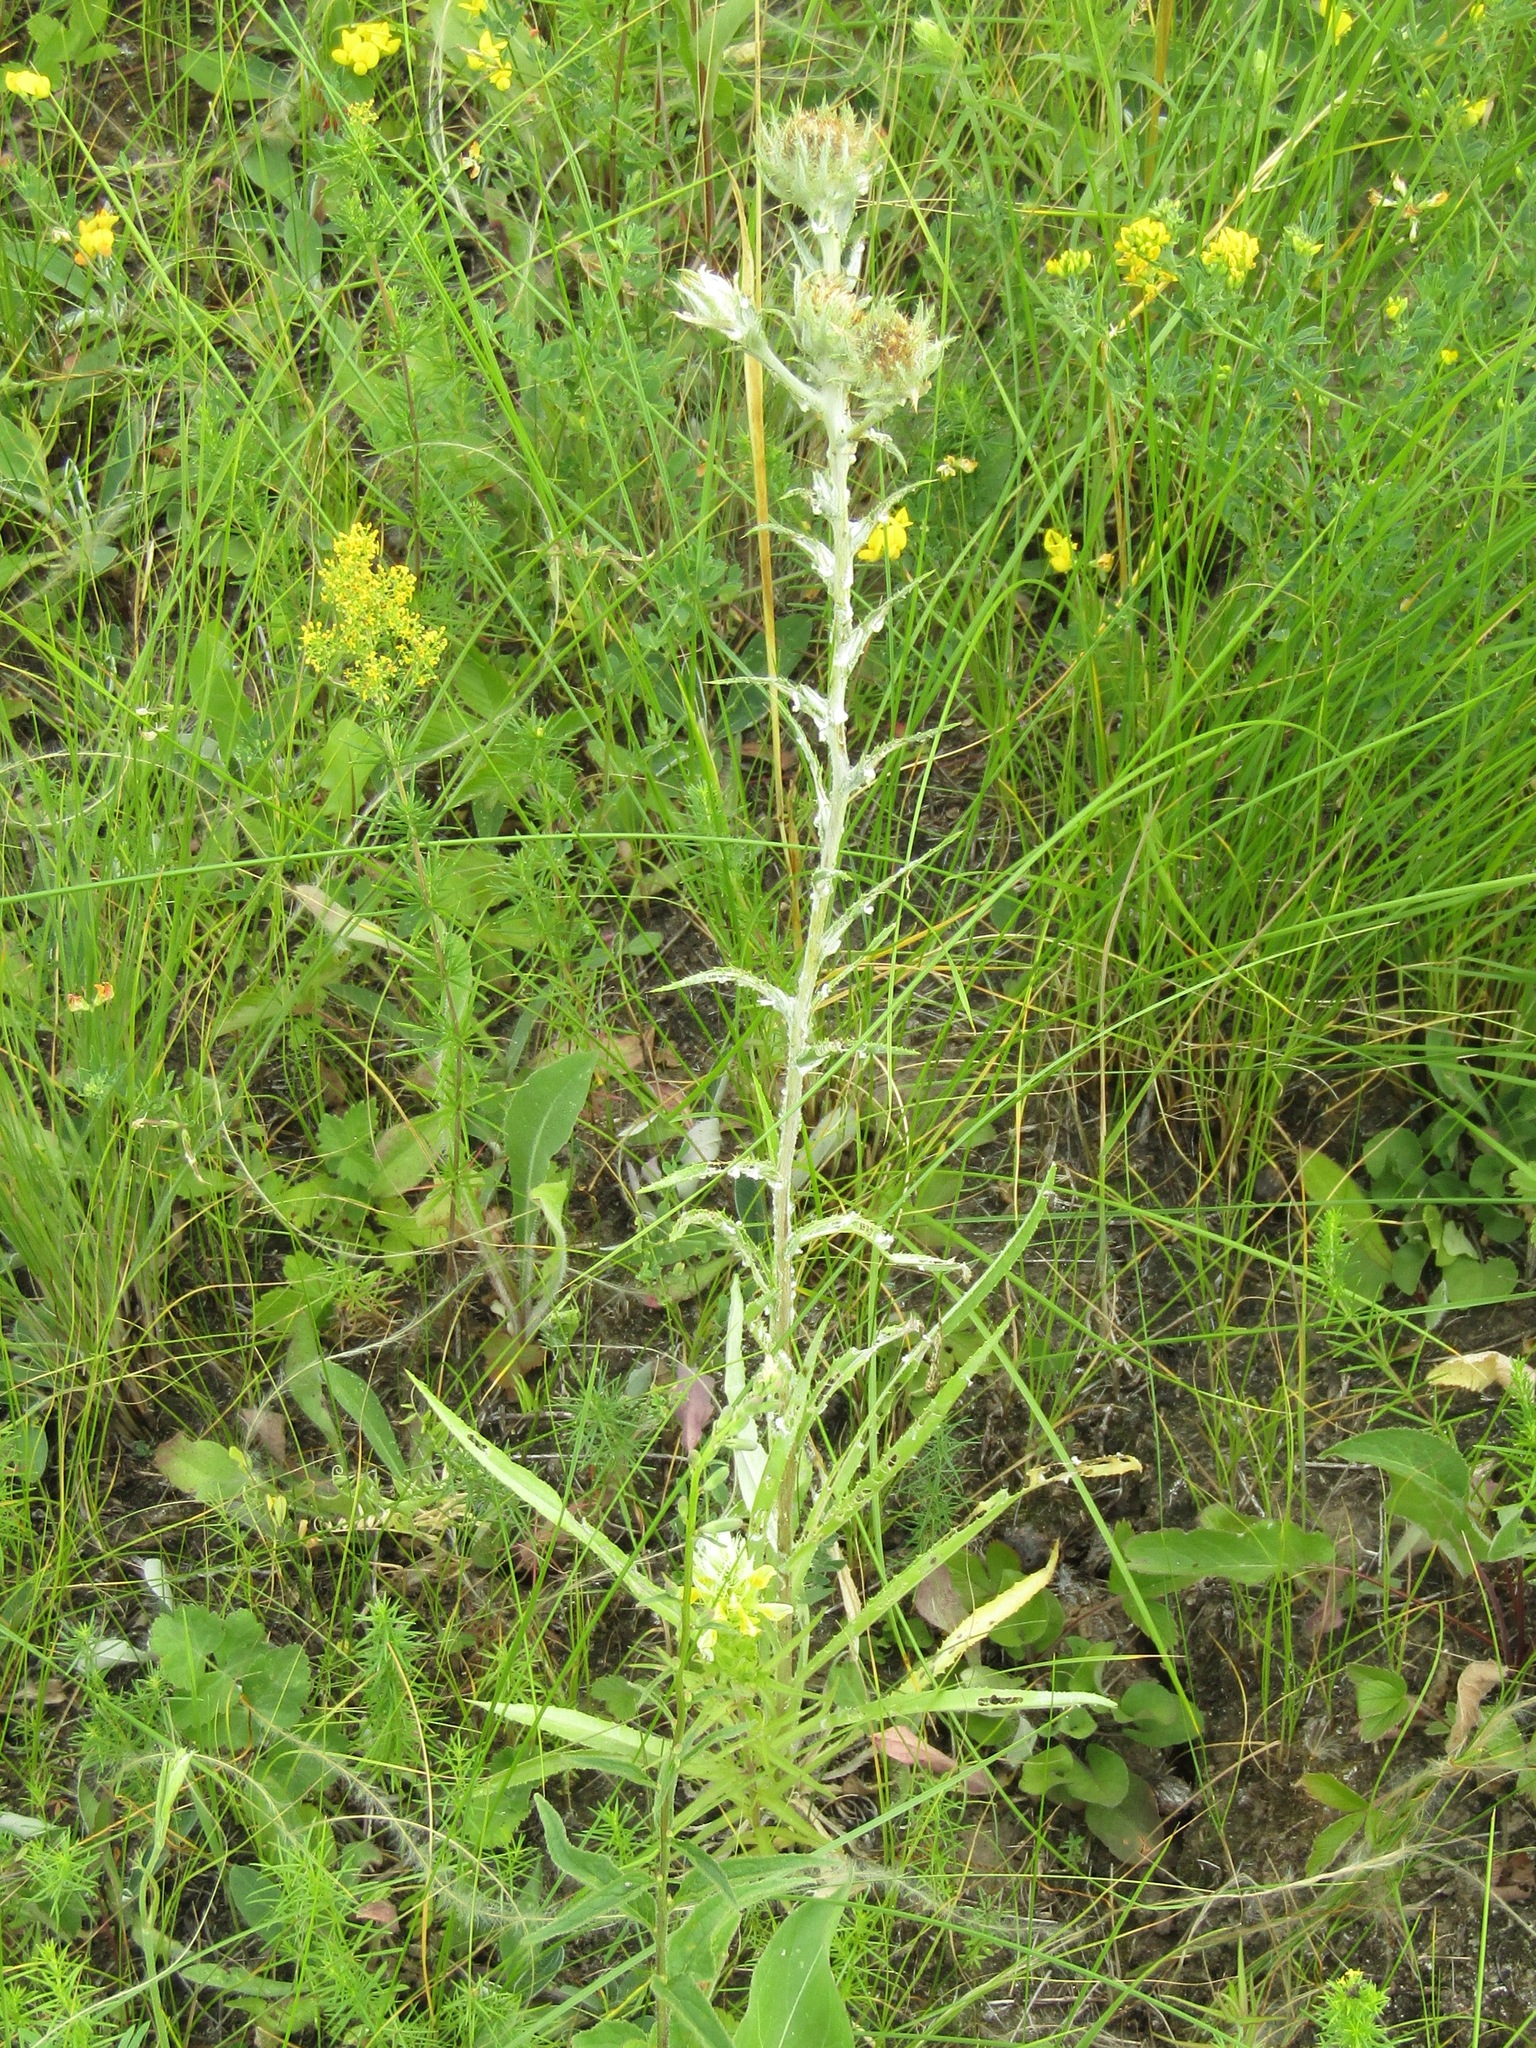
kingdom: Plantae
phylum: Tracheophyta
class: Magnoliopsida
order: Asterales
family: Asteraceae
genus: Carlina
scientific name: Carlina biebersteinii
